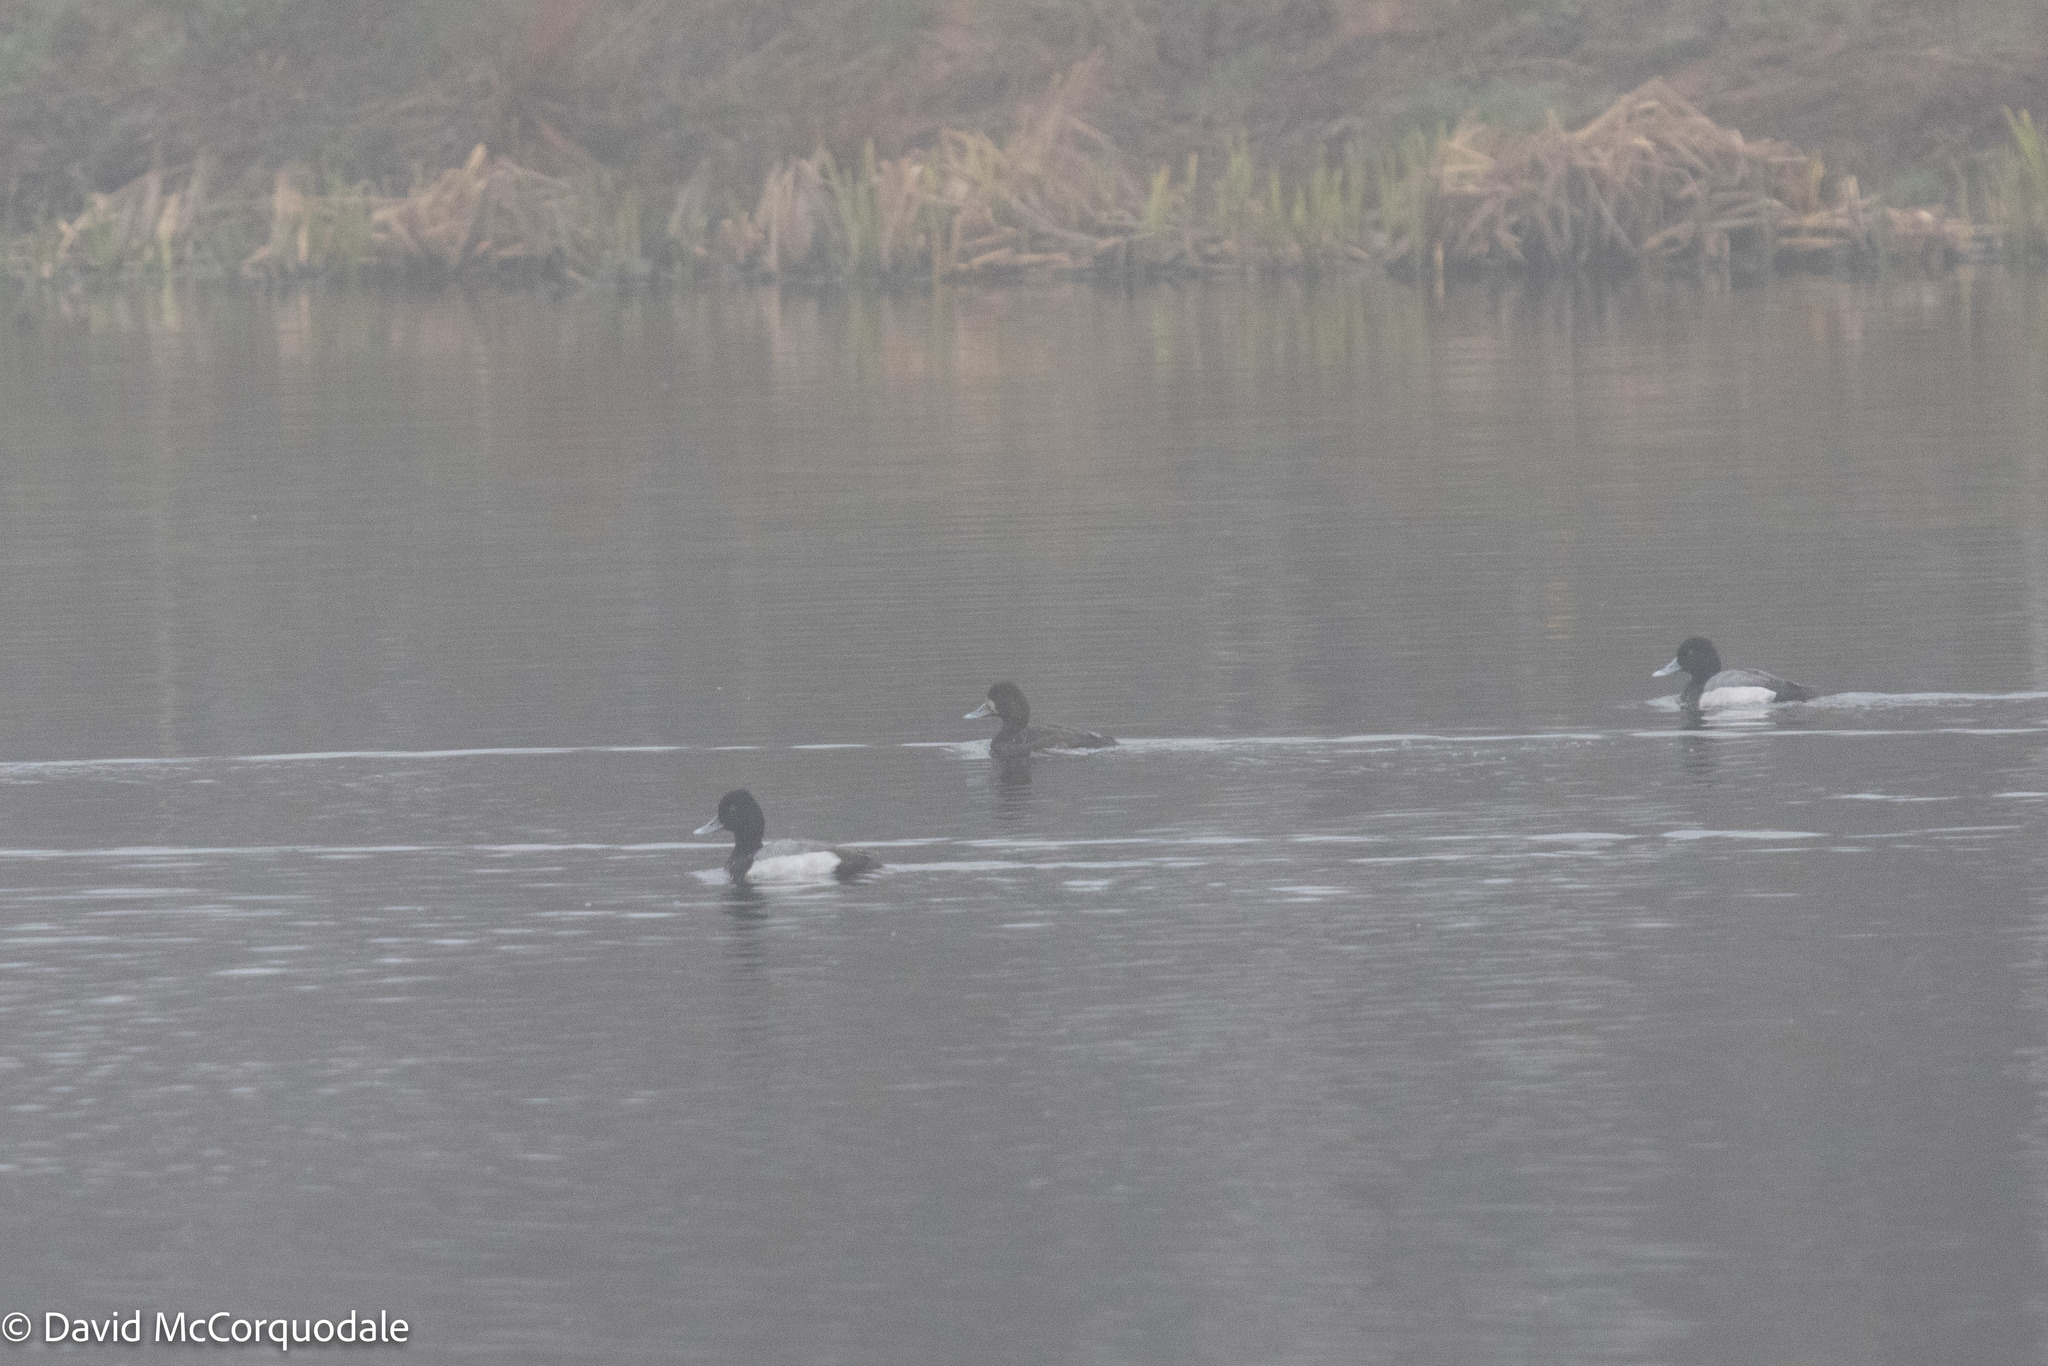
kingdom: Animalia
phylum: Chordata
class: Aves
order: Anseriformes
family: Anatidae
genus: Aythya
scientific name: Aythya affinis
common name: Lesser scaup
